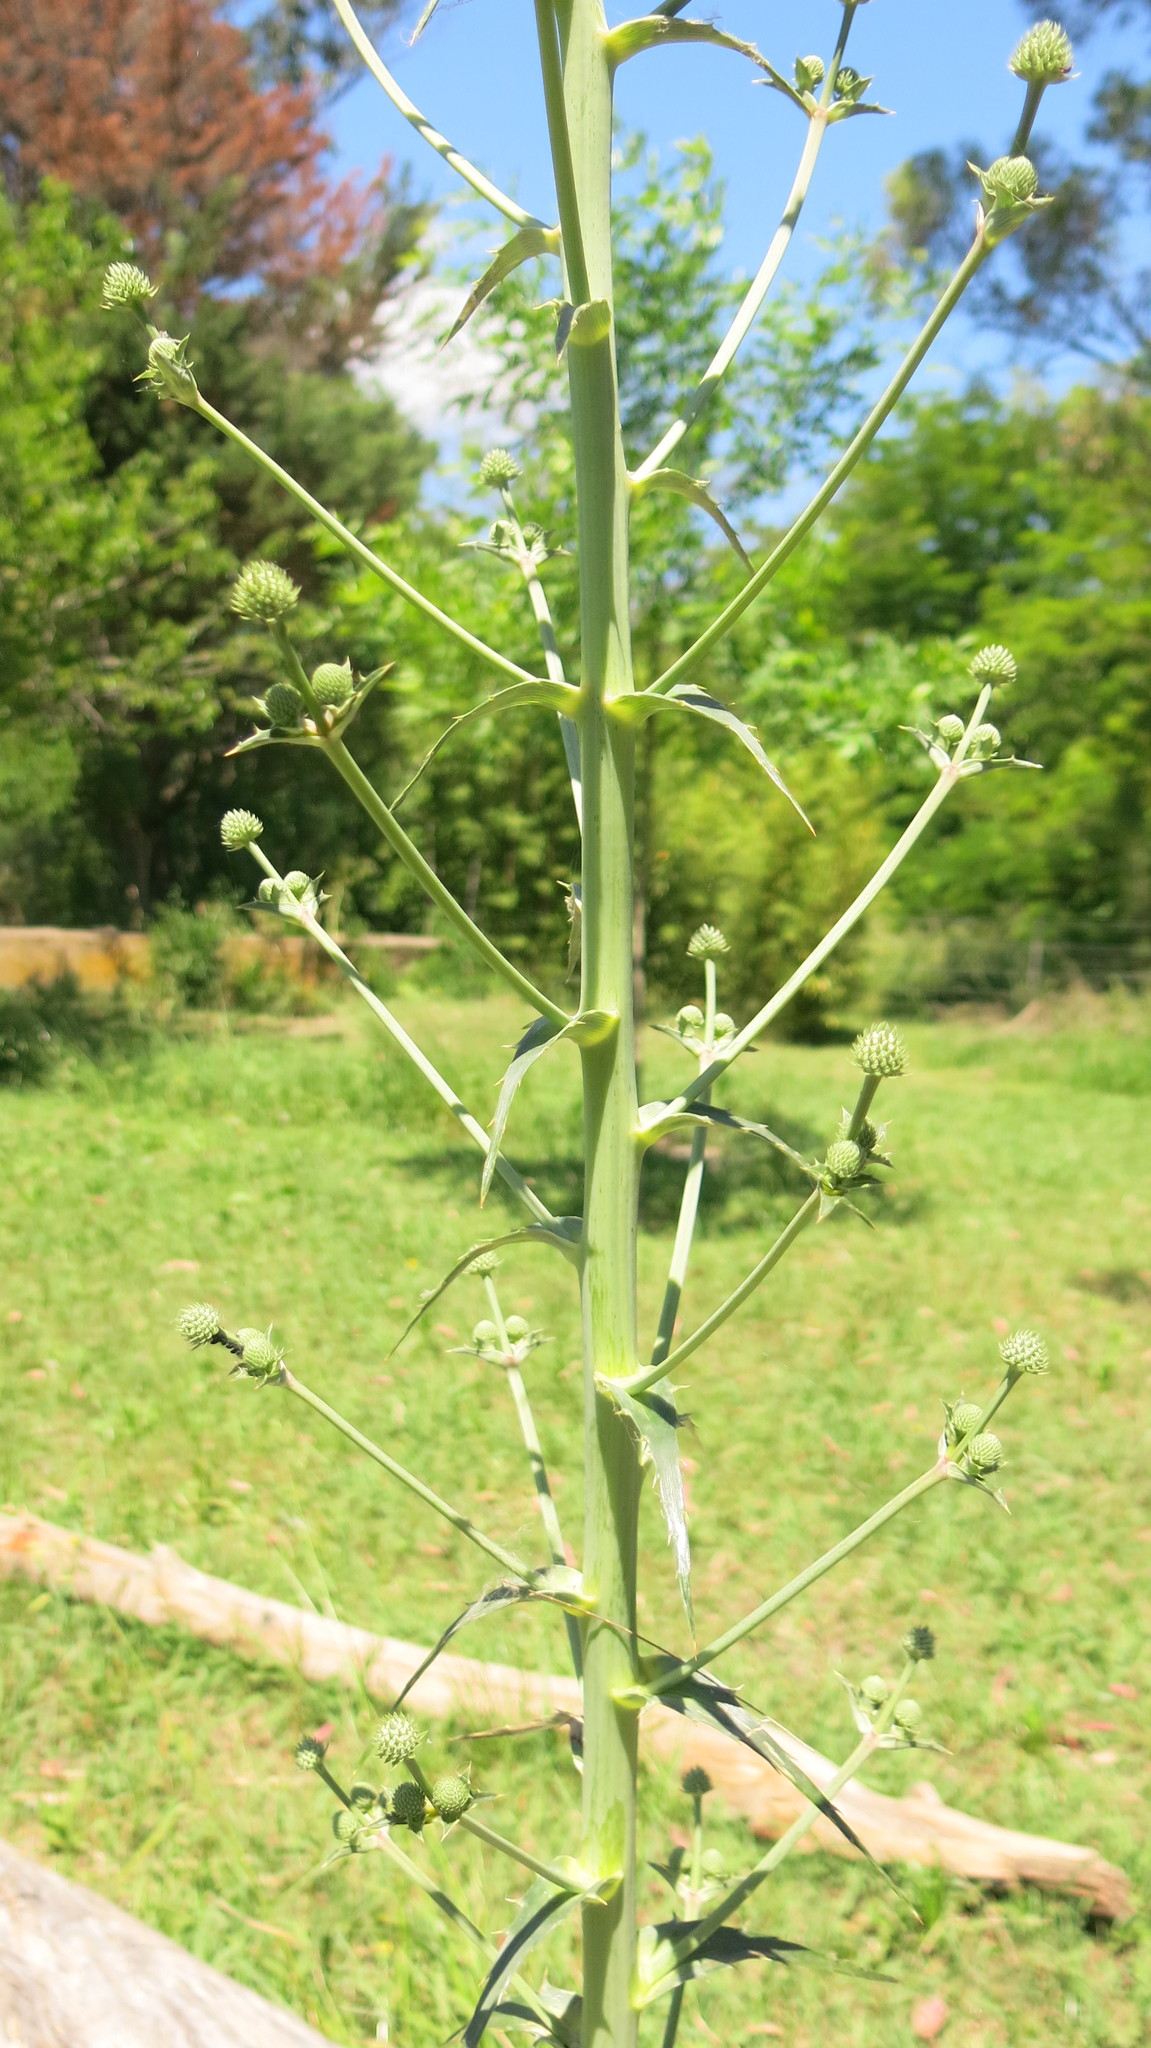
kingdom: Plantae
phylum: Tracheophyta
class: Magnoliopsida
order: Apiales
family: Apiaceae
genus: Eryngium
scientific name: Eryngium humboldtii
